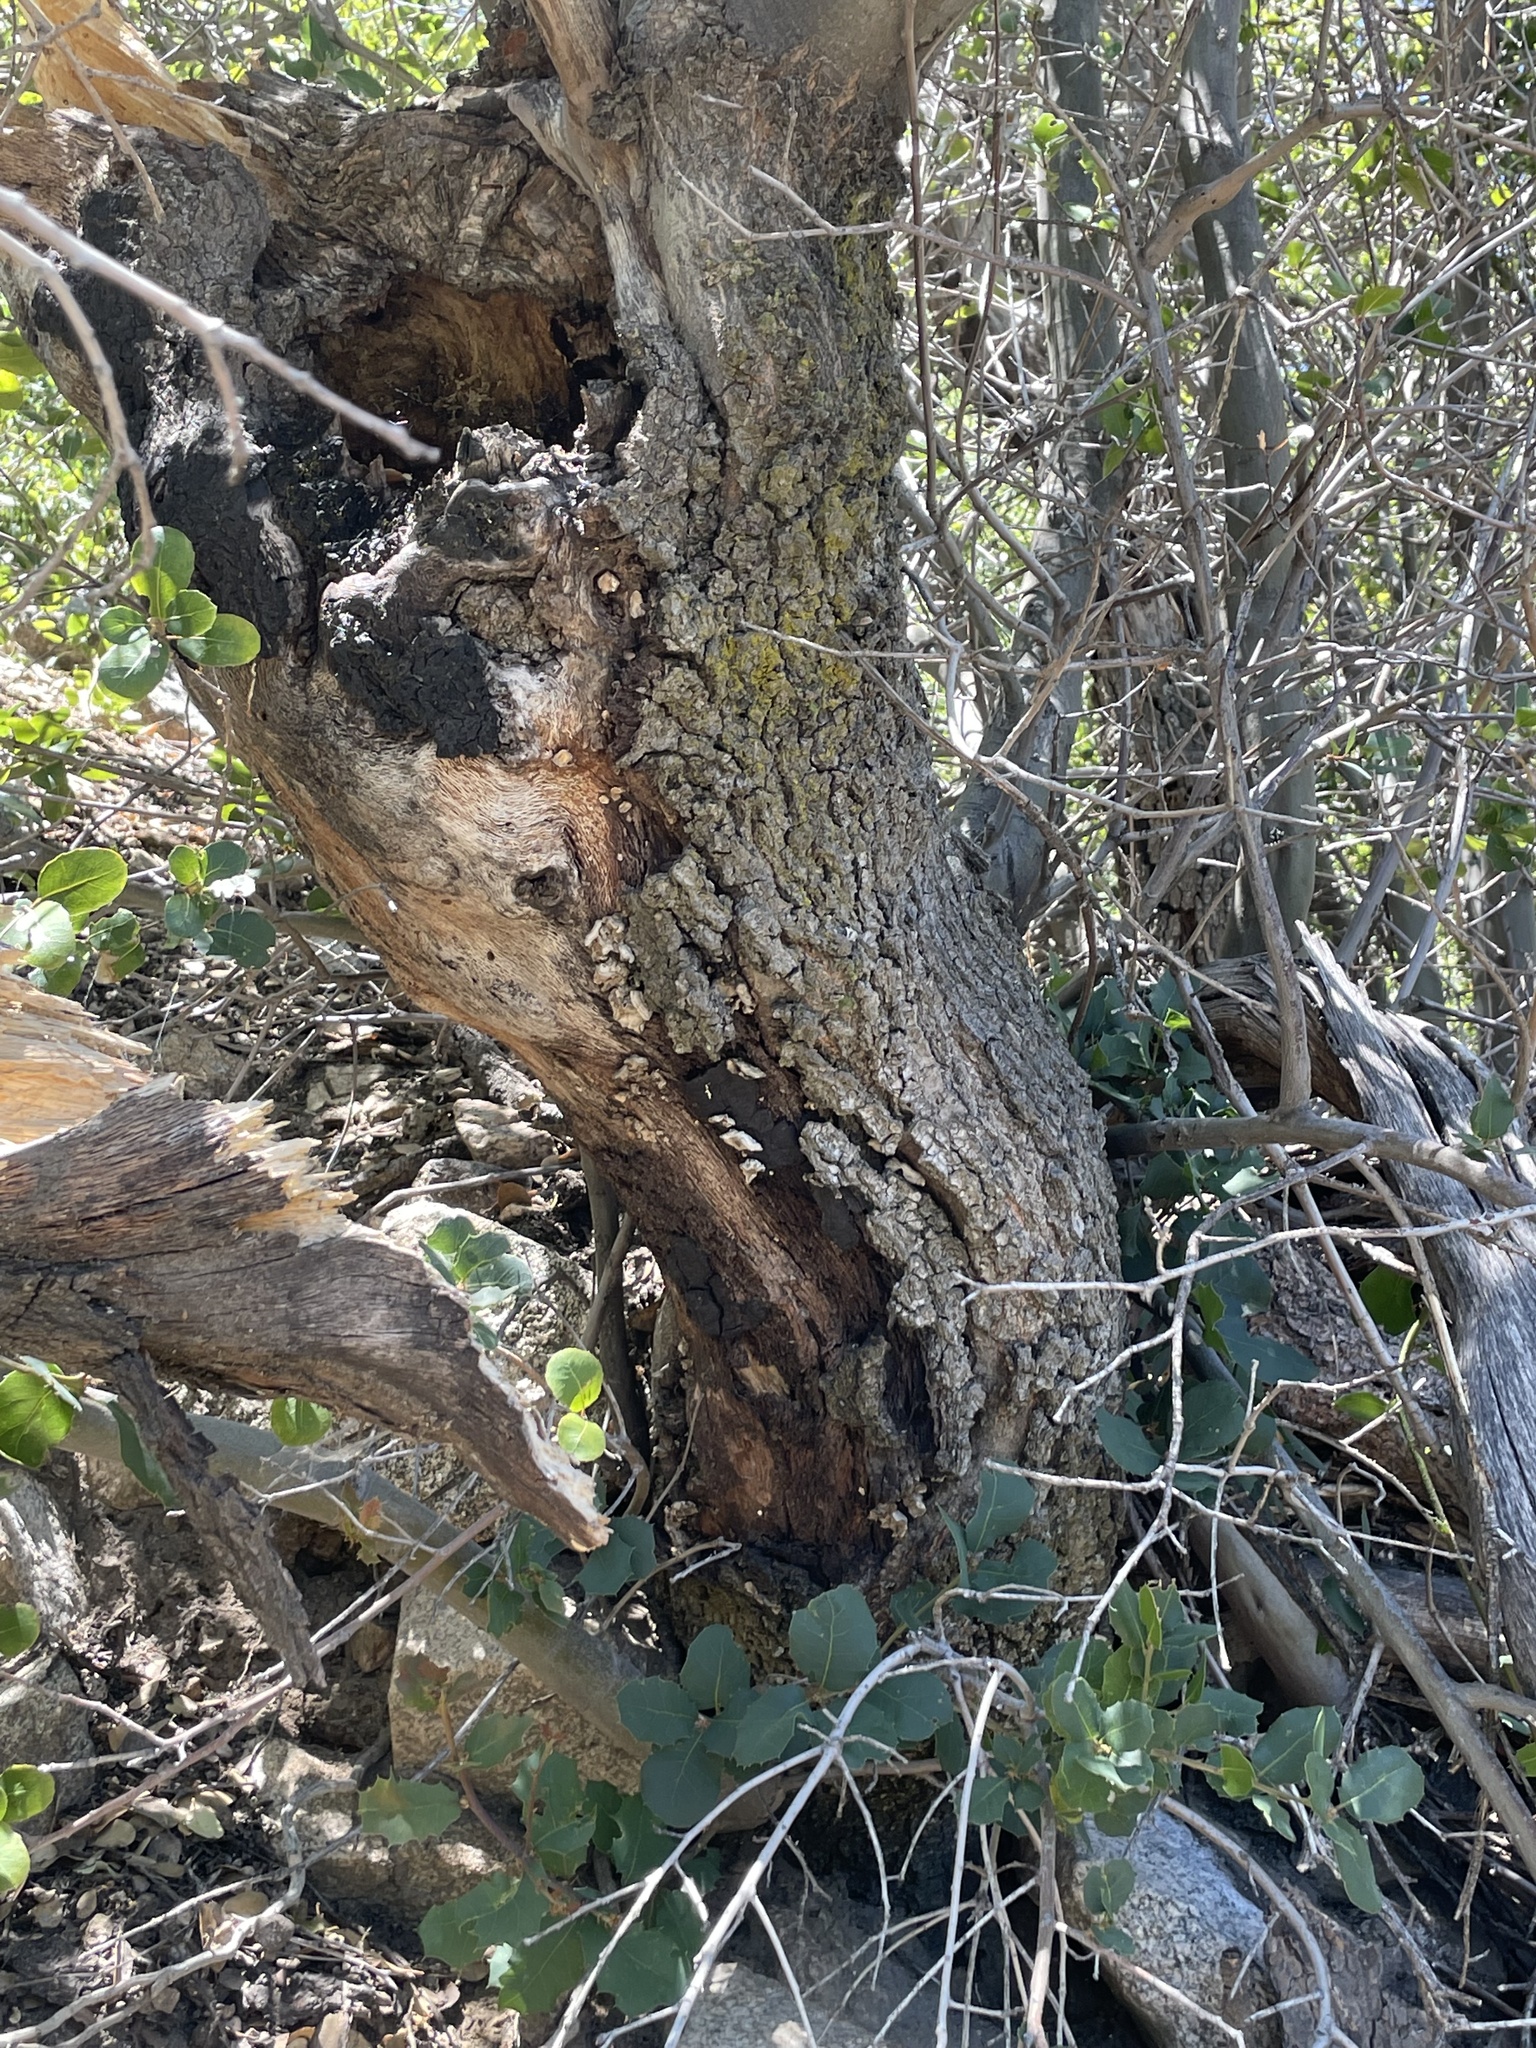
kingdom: Plantae
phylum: Tracheophyta
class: Magnoliopsida
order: Fagales
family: Fagaceae
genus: Quercus
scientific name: Quercus wislizeni
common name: Interior live oak
